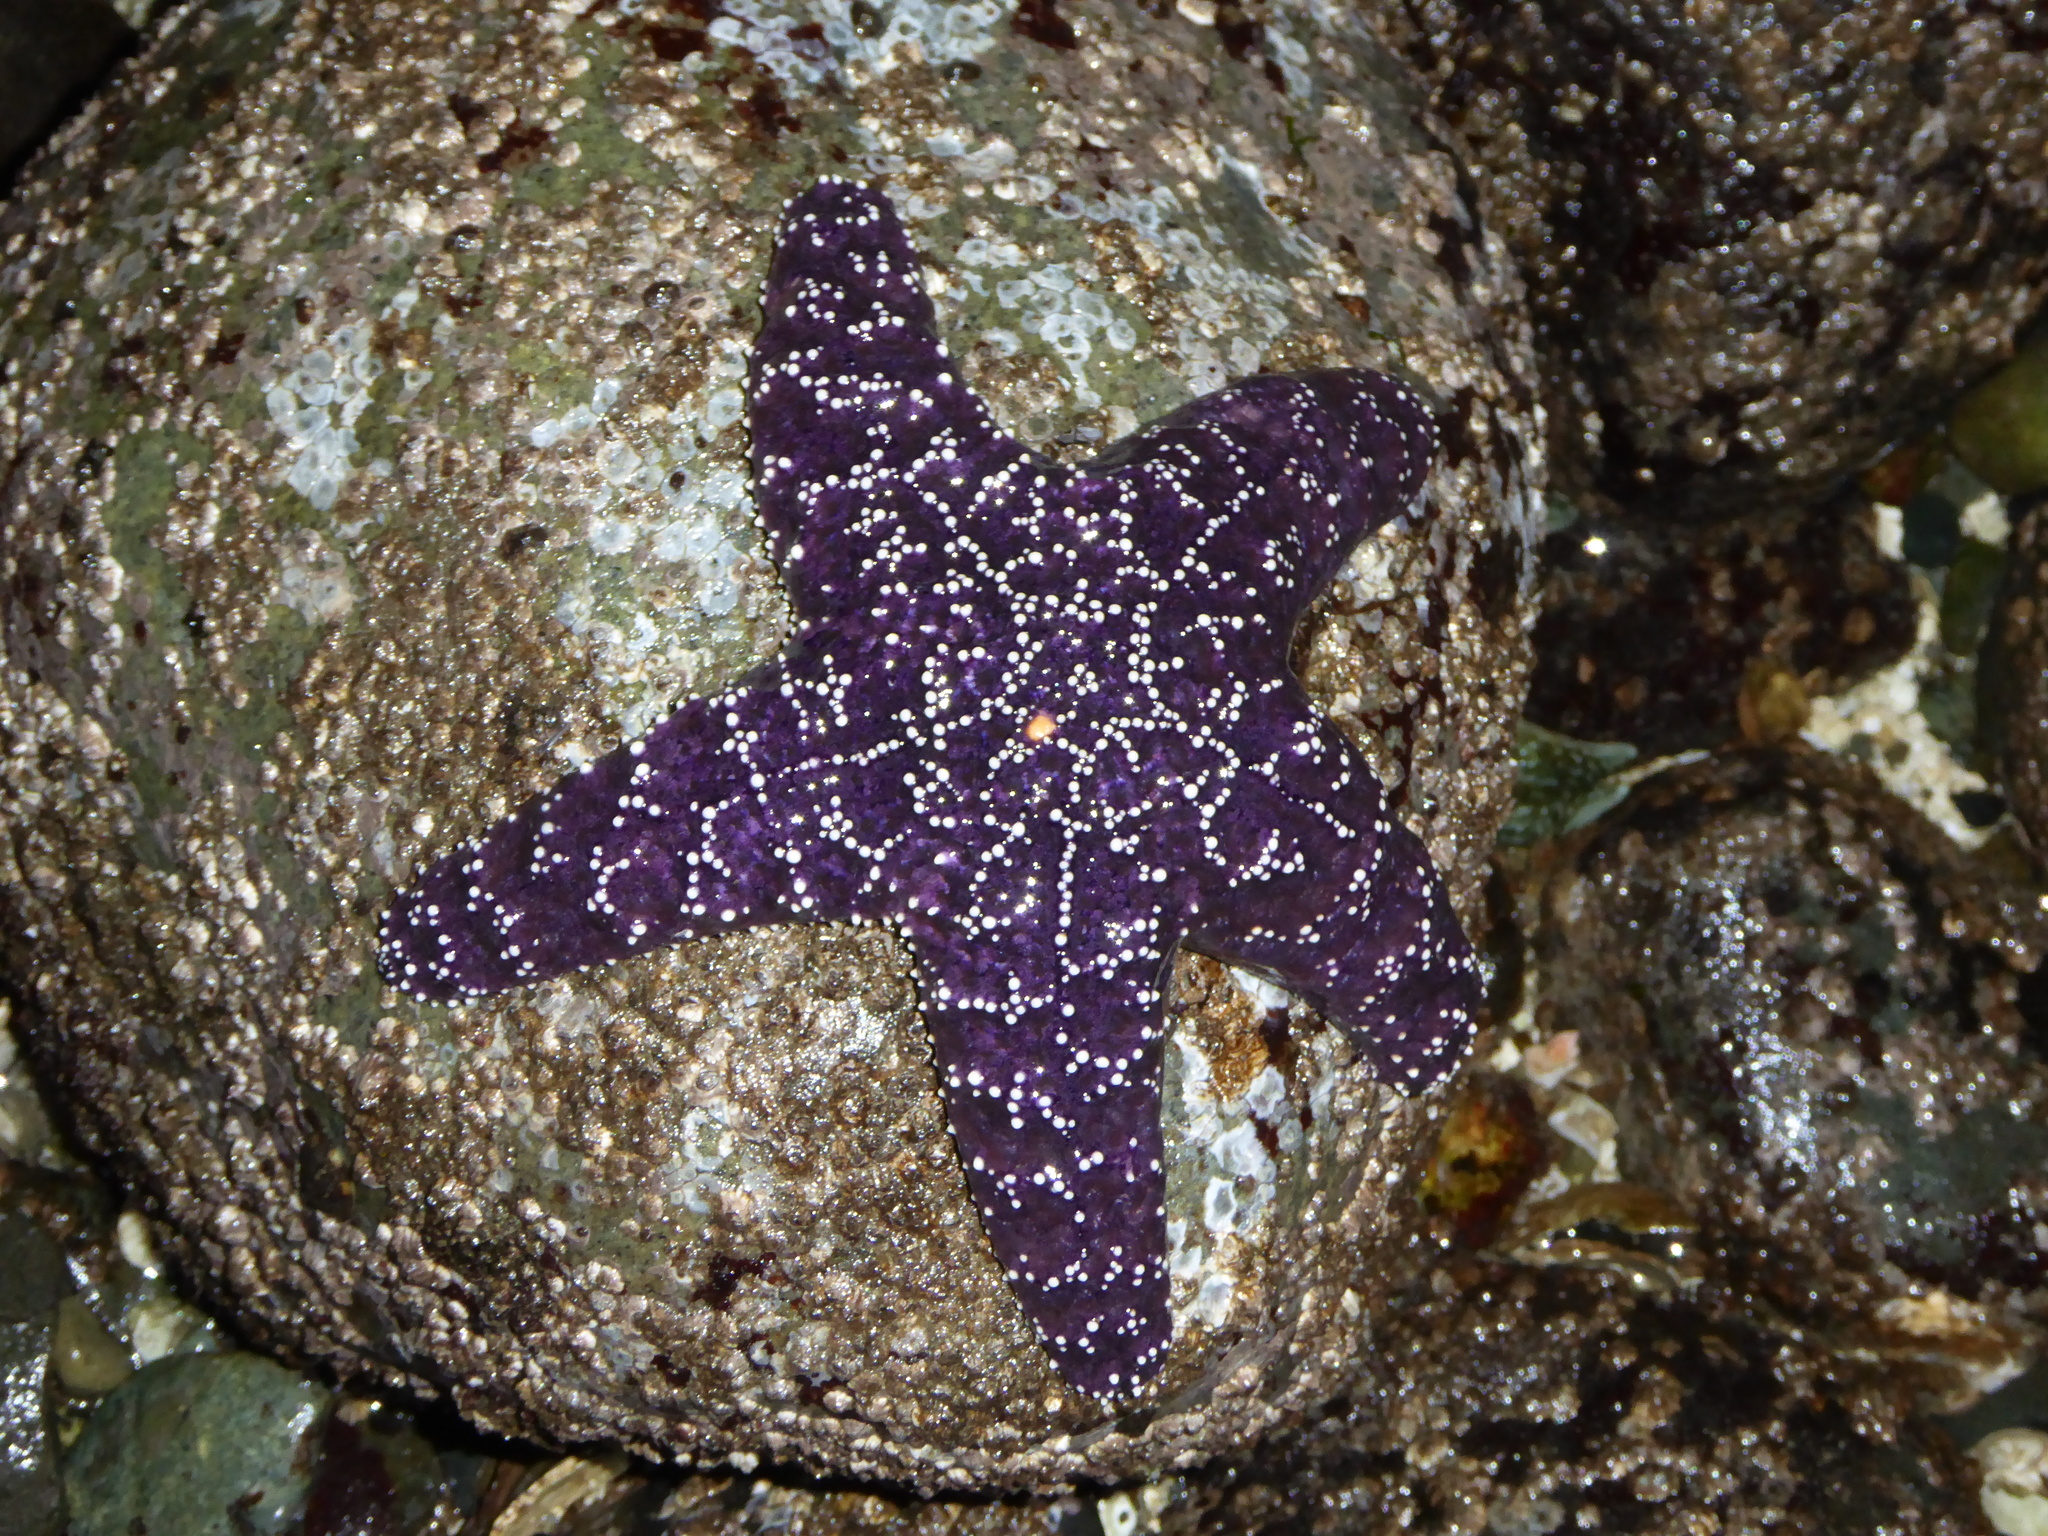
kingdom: Animalia
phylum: Echinodermata
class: Asteroidea
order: Forcipulatida
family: Asteriidae
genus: Pisaster
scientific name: Pisaster ochraceus
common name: Ochre stars
